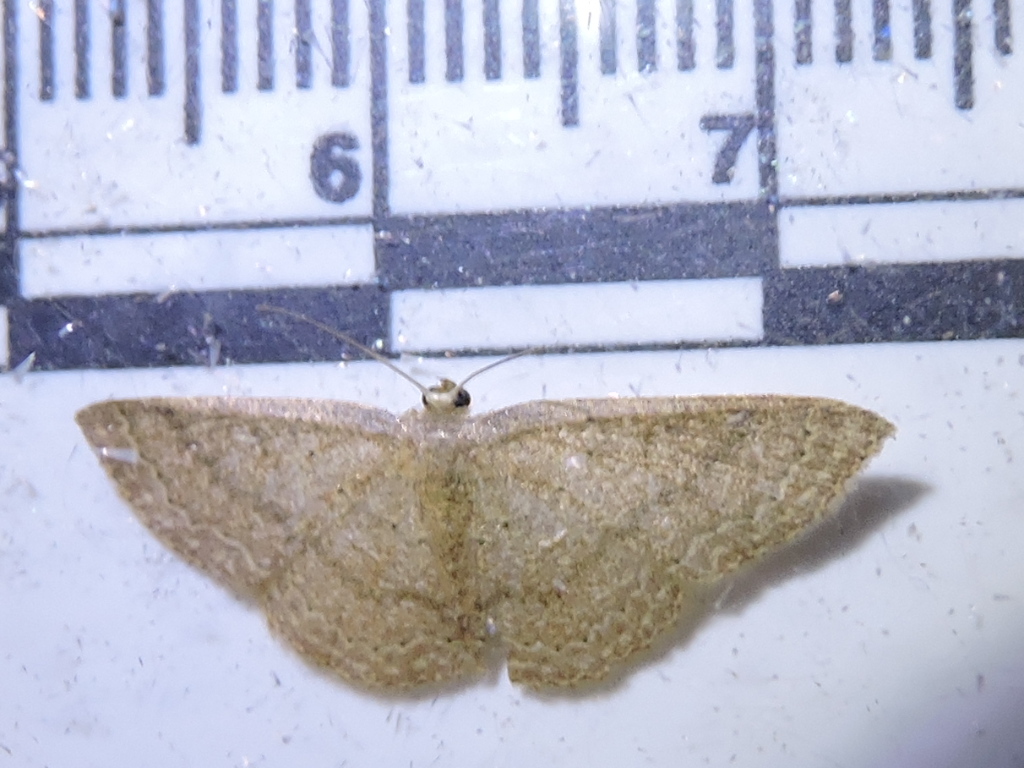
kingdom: Animalia
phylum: Arthropoda
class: Insecta
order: Lepidoptera
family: Geometridae
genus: Pleuroprucha
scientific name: Pleuroprucha insulsaria
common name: Common tan wave
